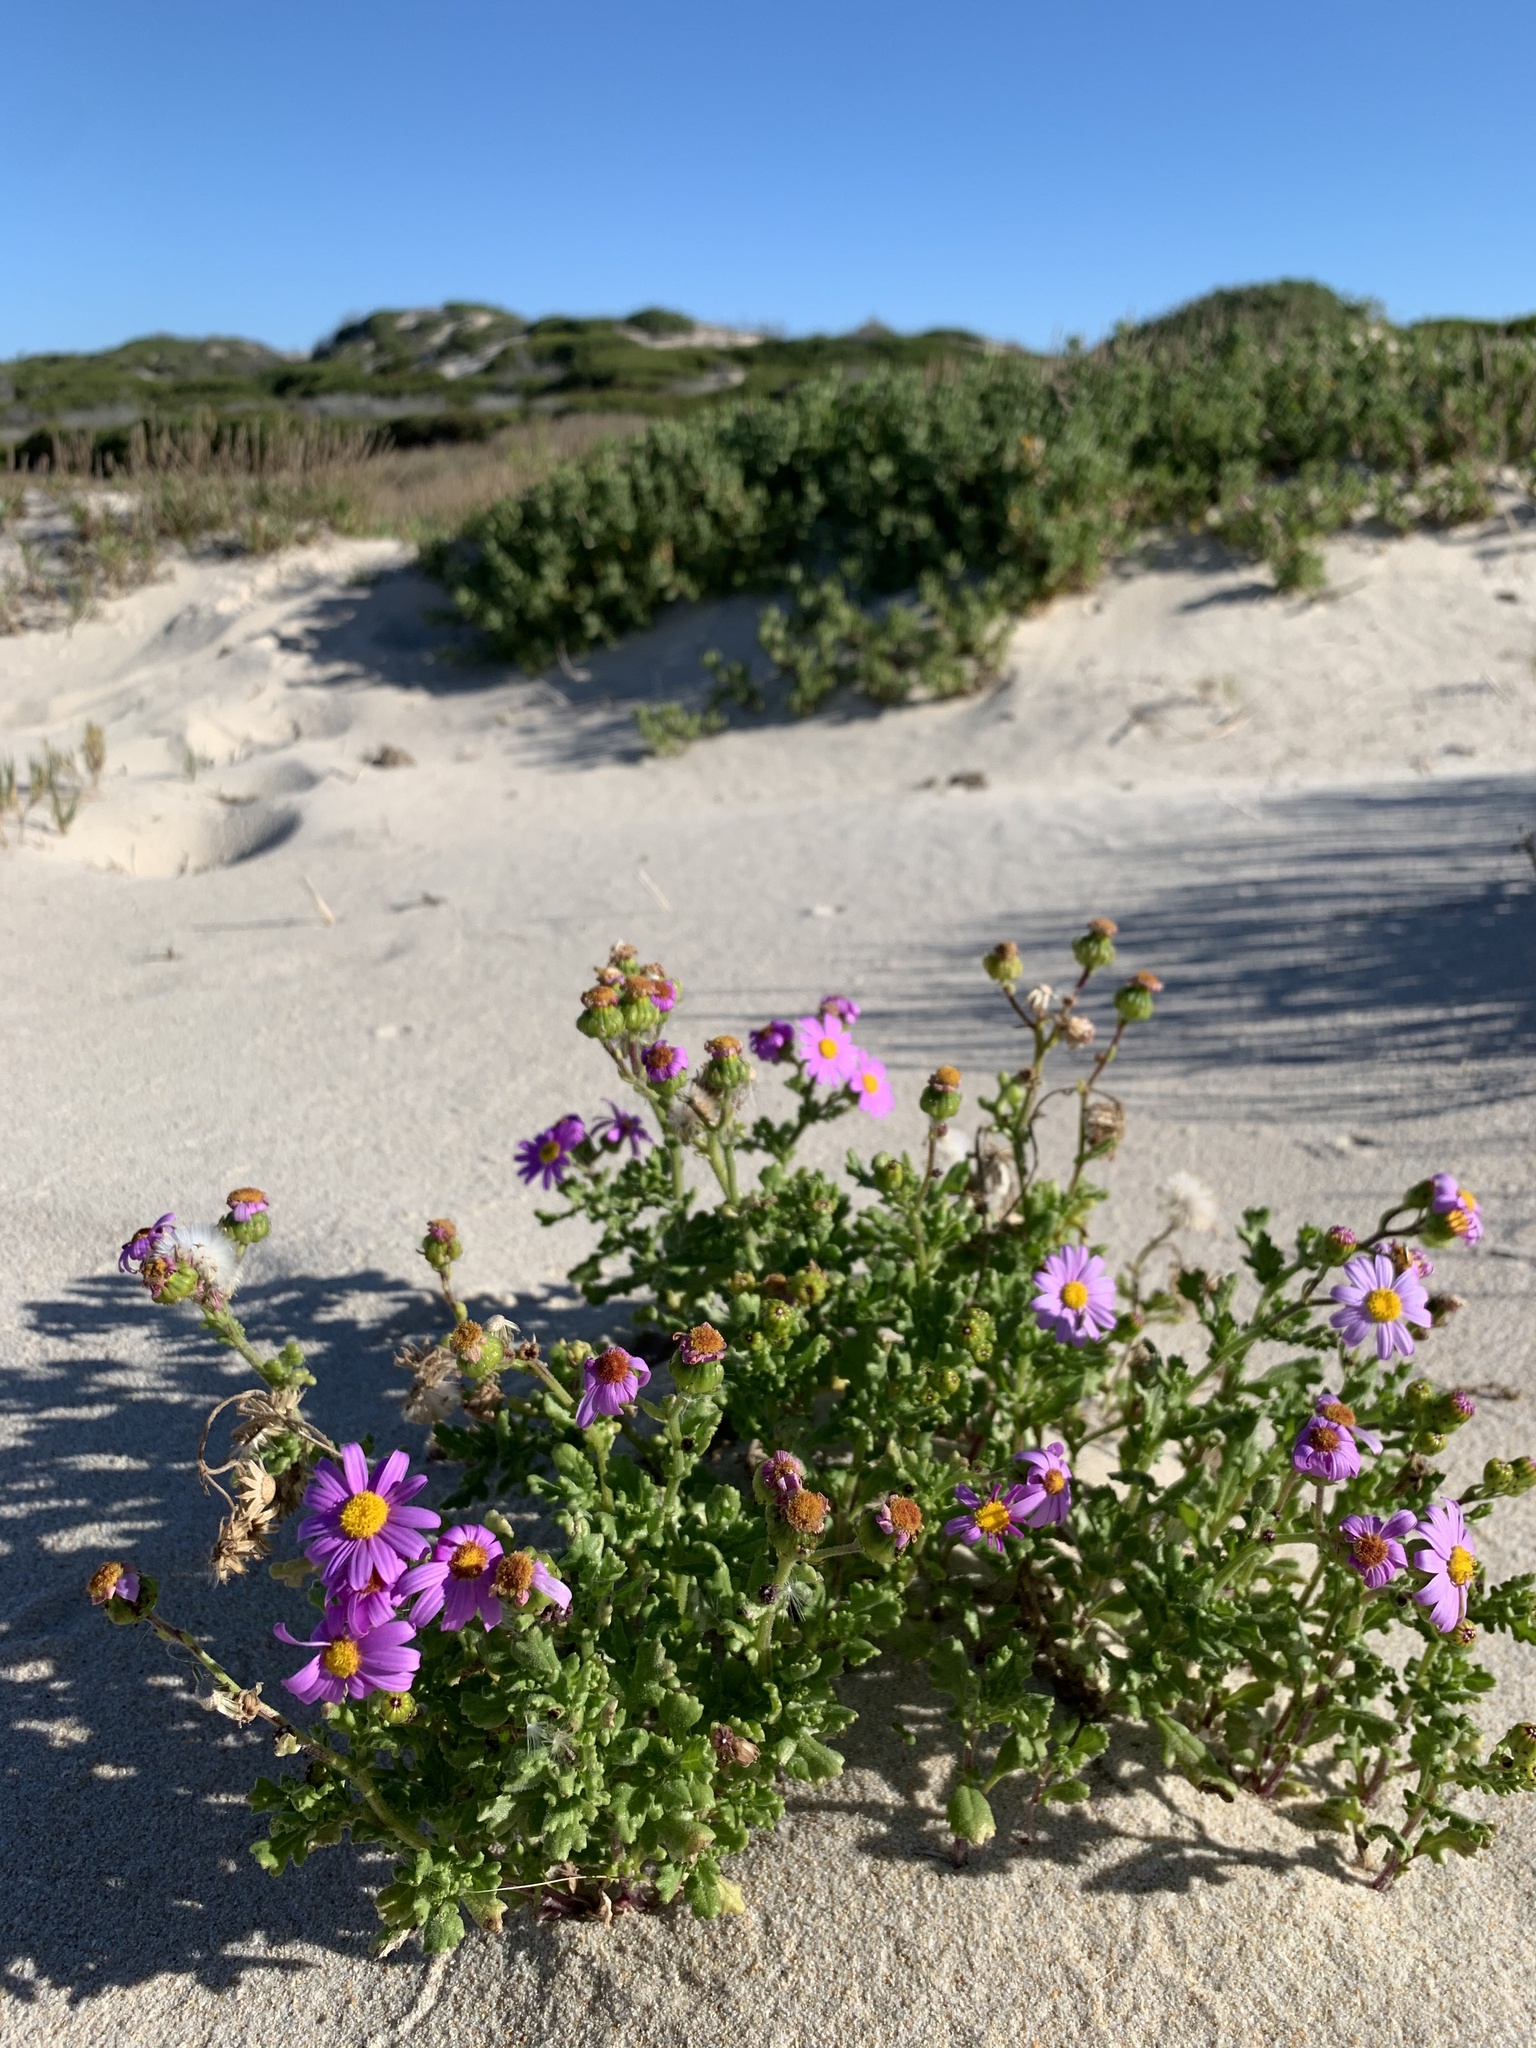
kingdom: Plantae
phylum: Tracheophyta
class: Magnoliopsida
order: Asterales
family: Asteraceae
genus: Senecio
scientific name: Senecio elegans
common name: Purple groundsel
